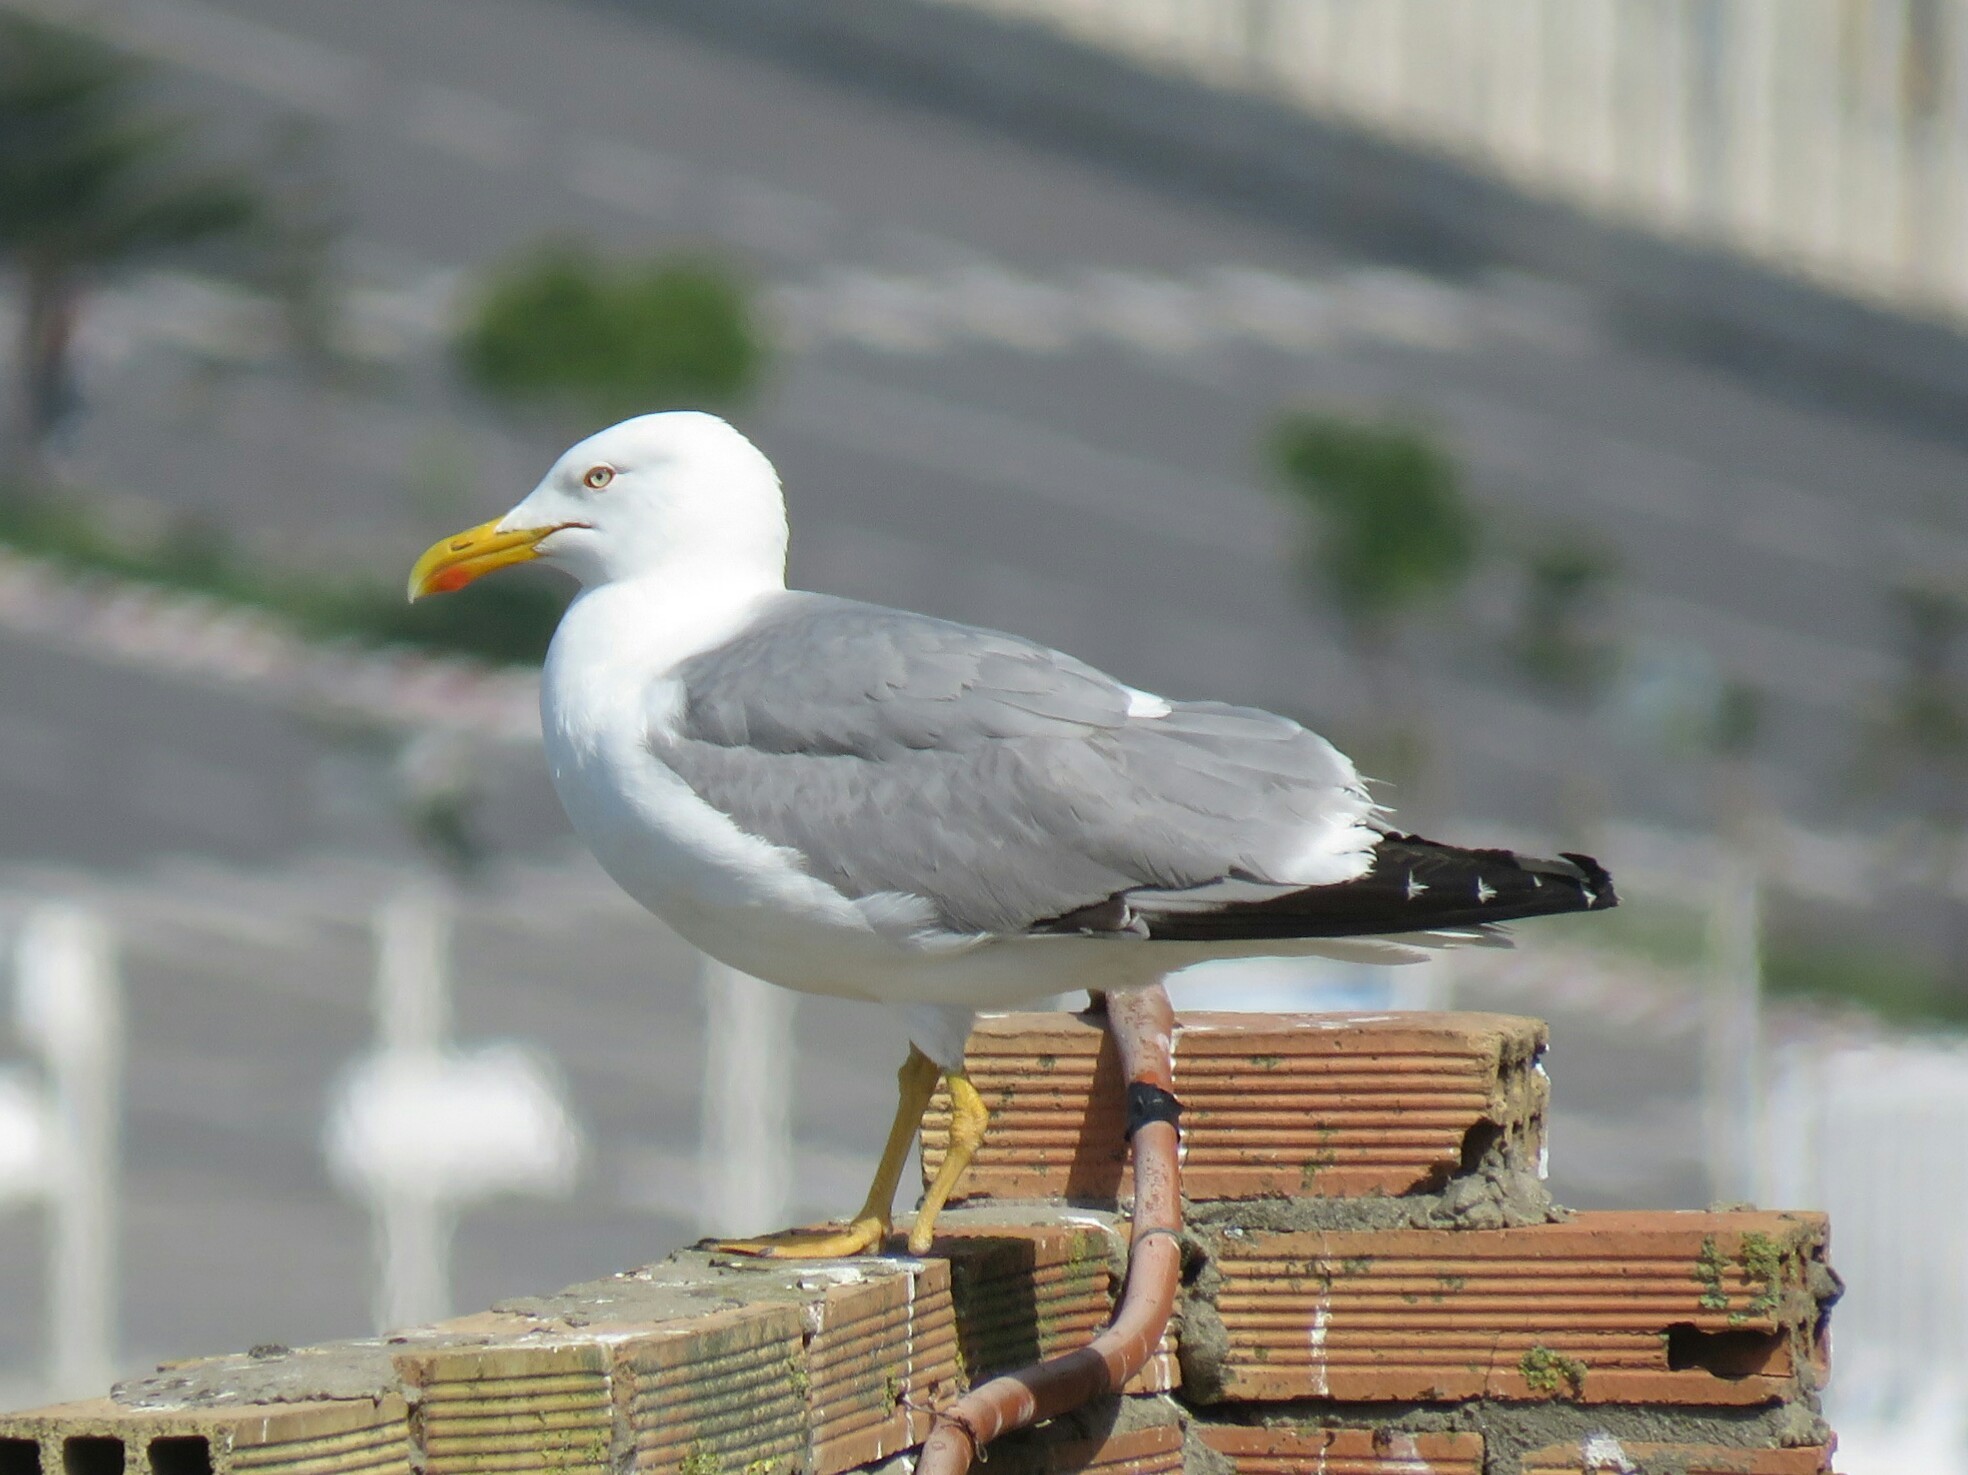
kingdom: Animalia
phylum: Chordata
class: Aves
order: Charadriiformes
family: Laridae
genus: Larus
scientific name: Larus michahellis
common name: Yellow-legged gull
